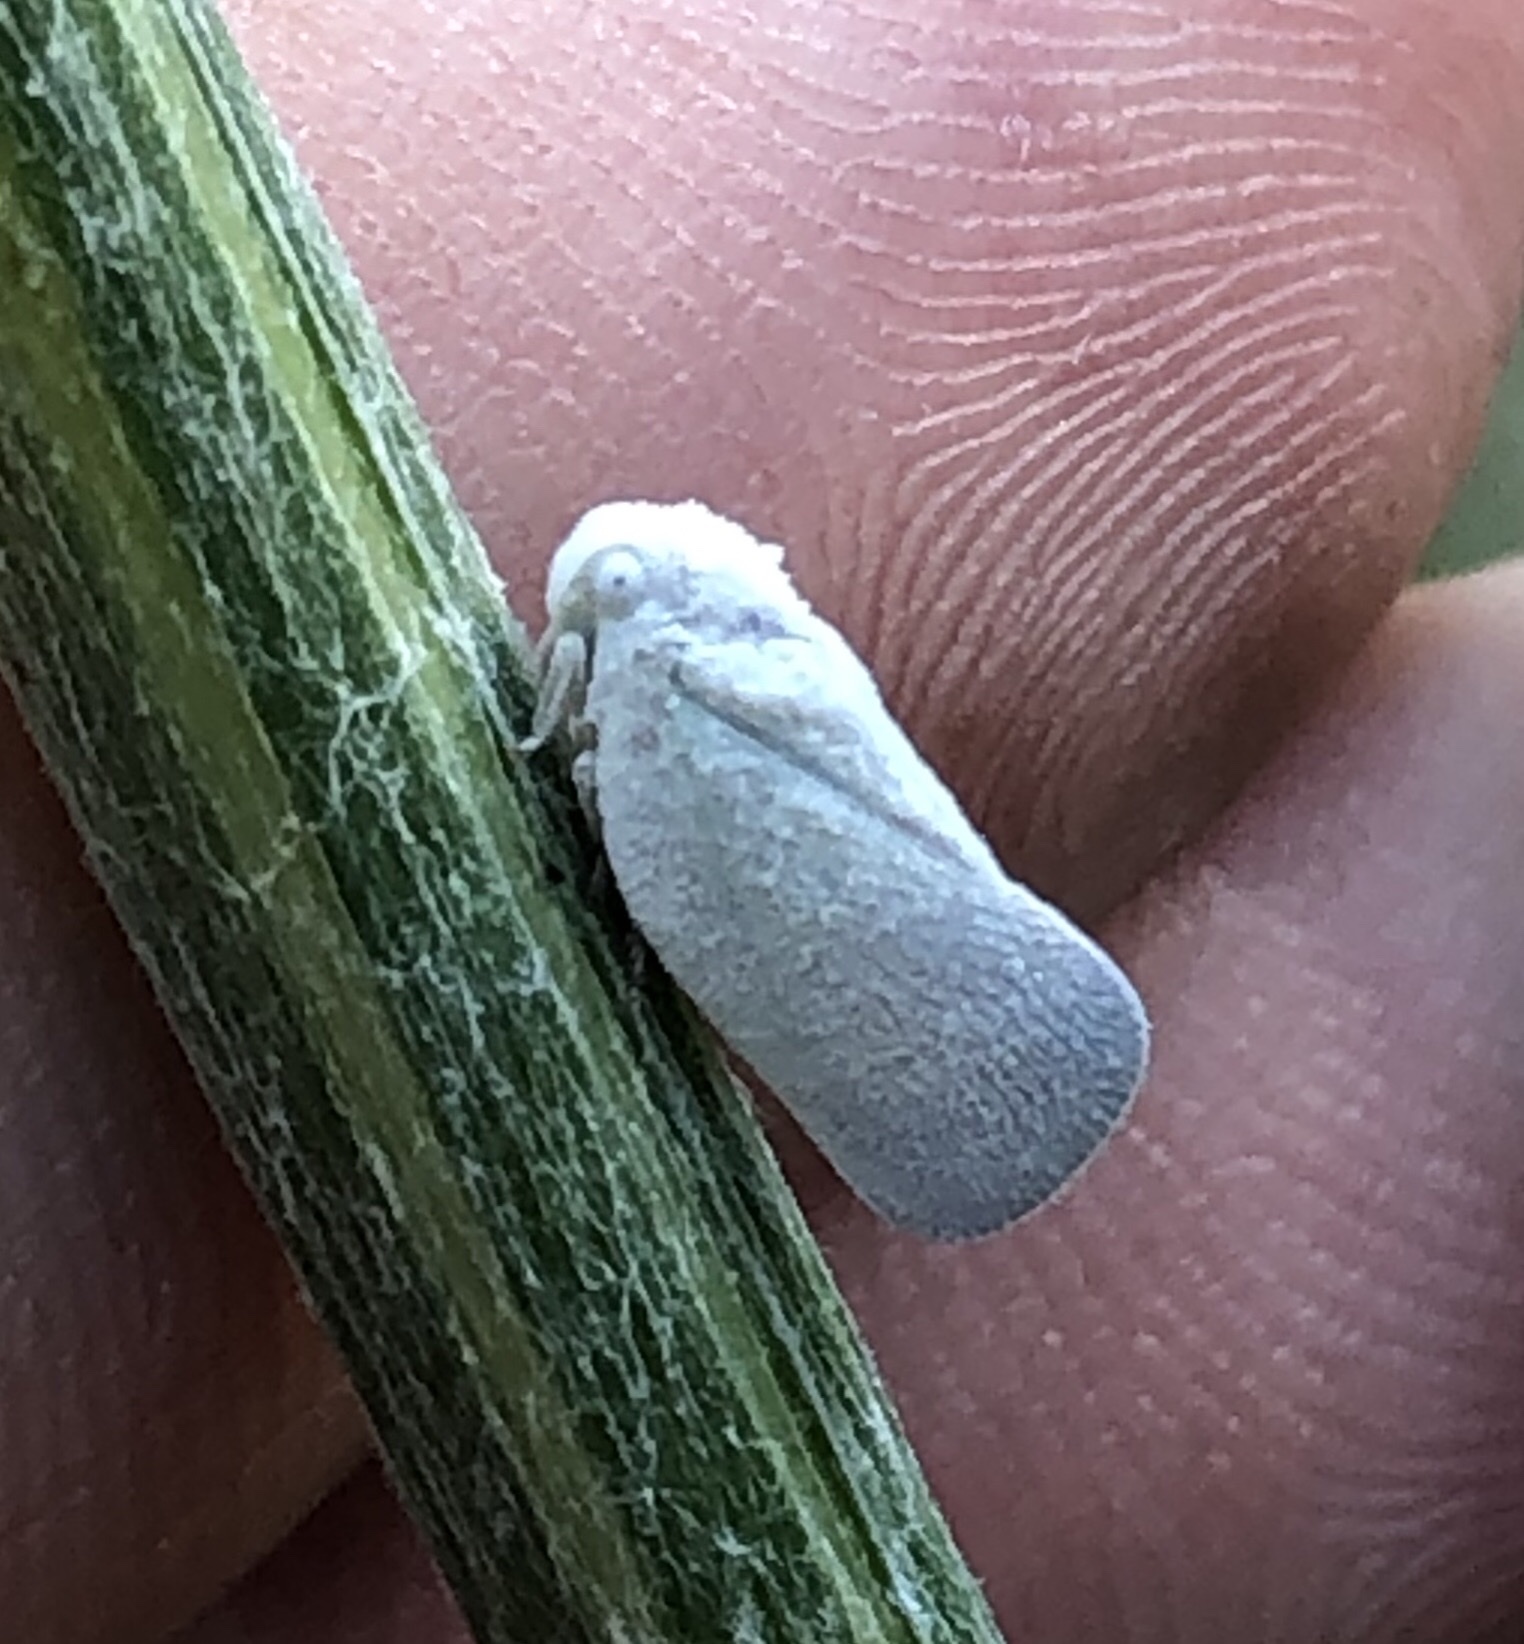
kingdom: Animalia
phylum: Arthropoda
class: Insecta
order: Hemiptera
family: Flatidae
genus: Flatormenis
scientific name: Flatormenis saucia
